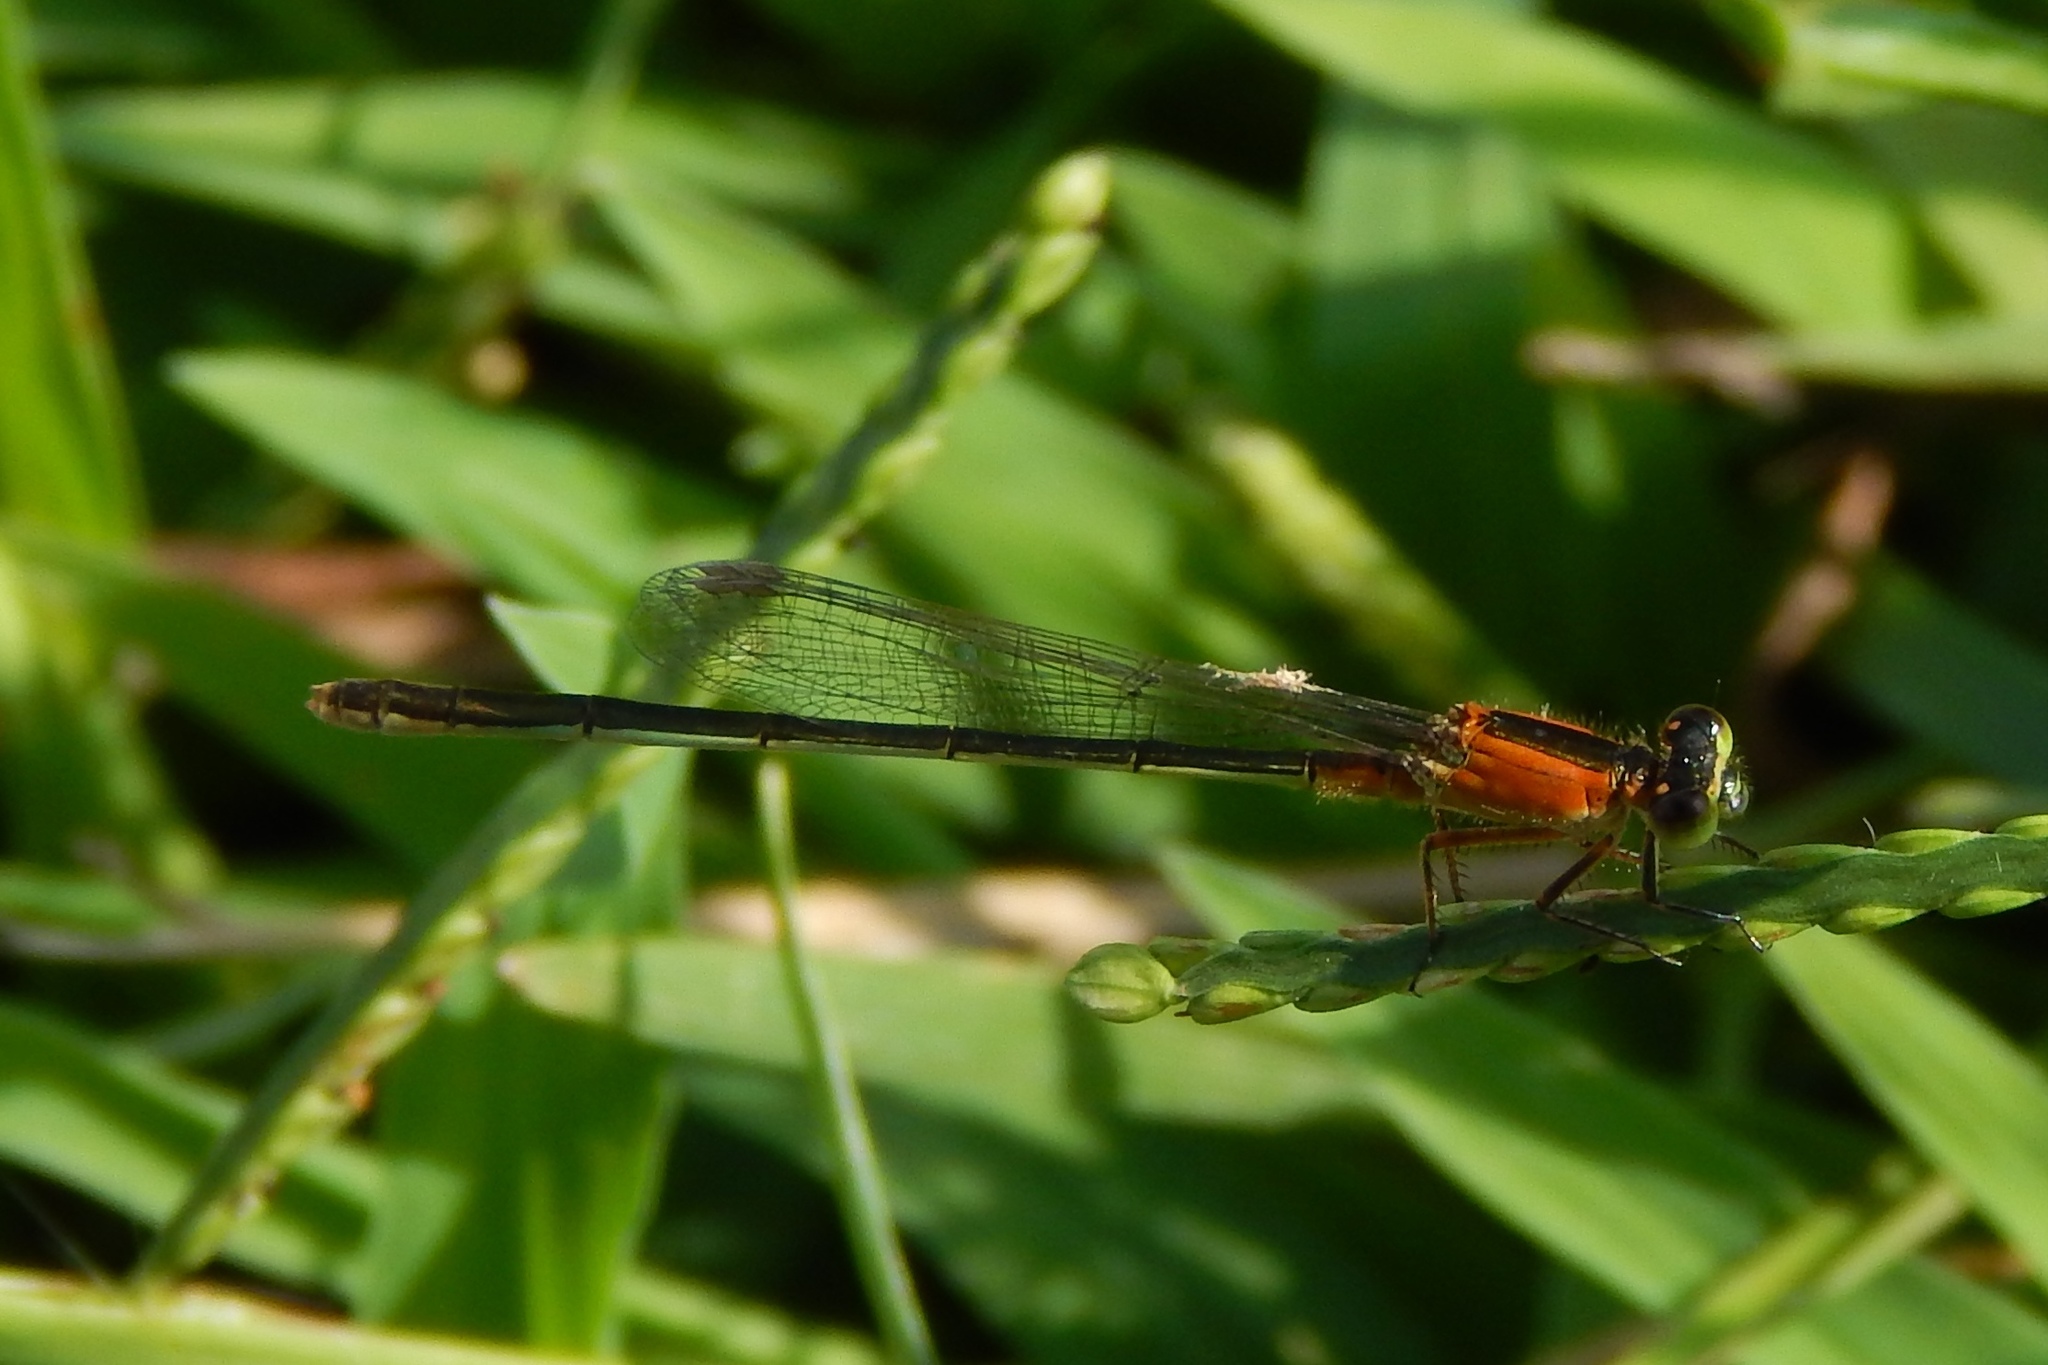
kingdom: Animalia
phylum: Arthropoda
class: Insecta
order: Odonata
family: Coenagrionidae
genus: Ischnura
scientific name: Ischnura ramburii
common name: Rambur's forktail
